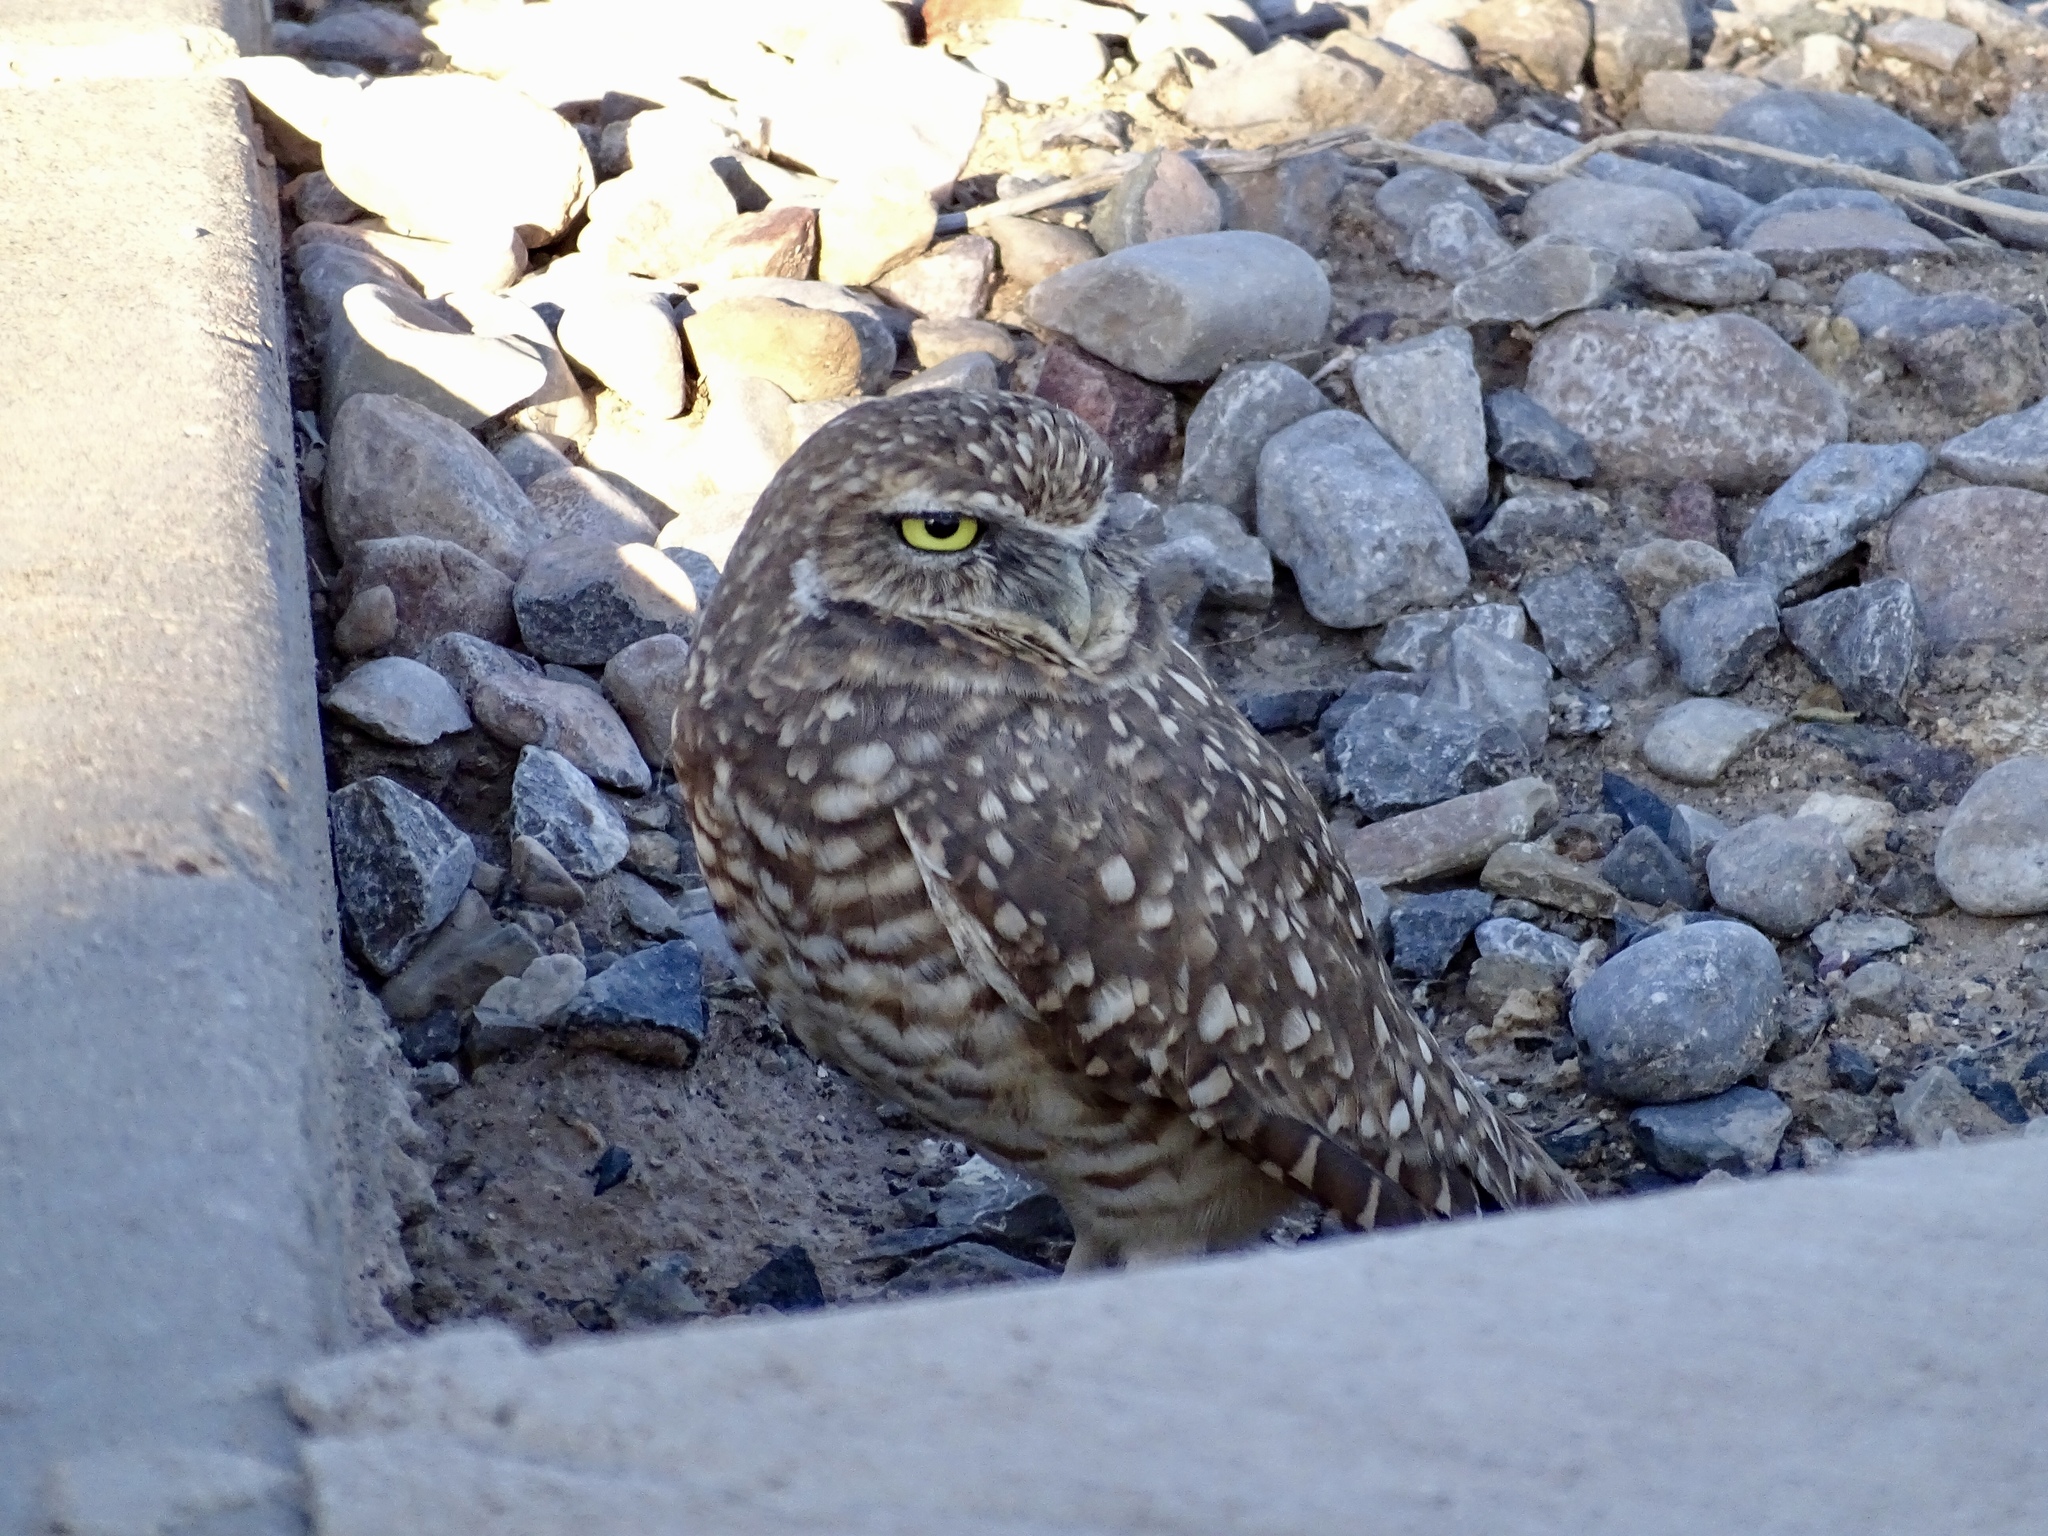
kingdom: Animalia
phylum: Chordata
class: Aves
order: Strigiformes
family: Strigidae
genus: Athene
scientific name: Athene cunicularia
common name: Burrowing owl
